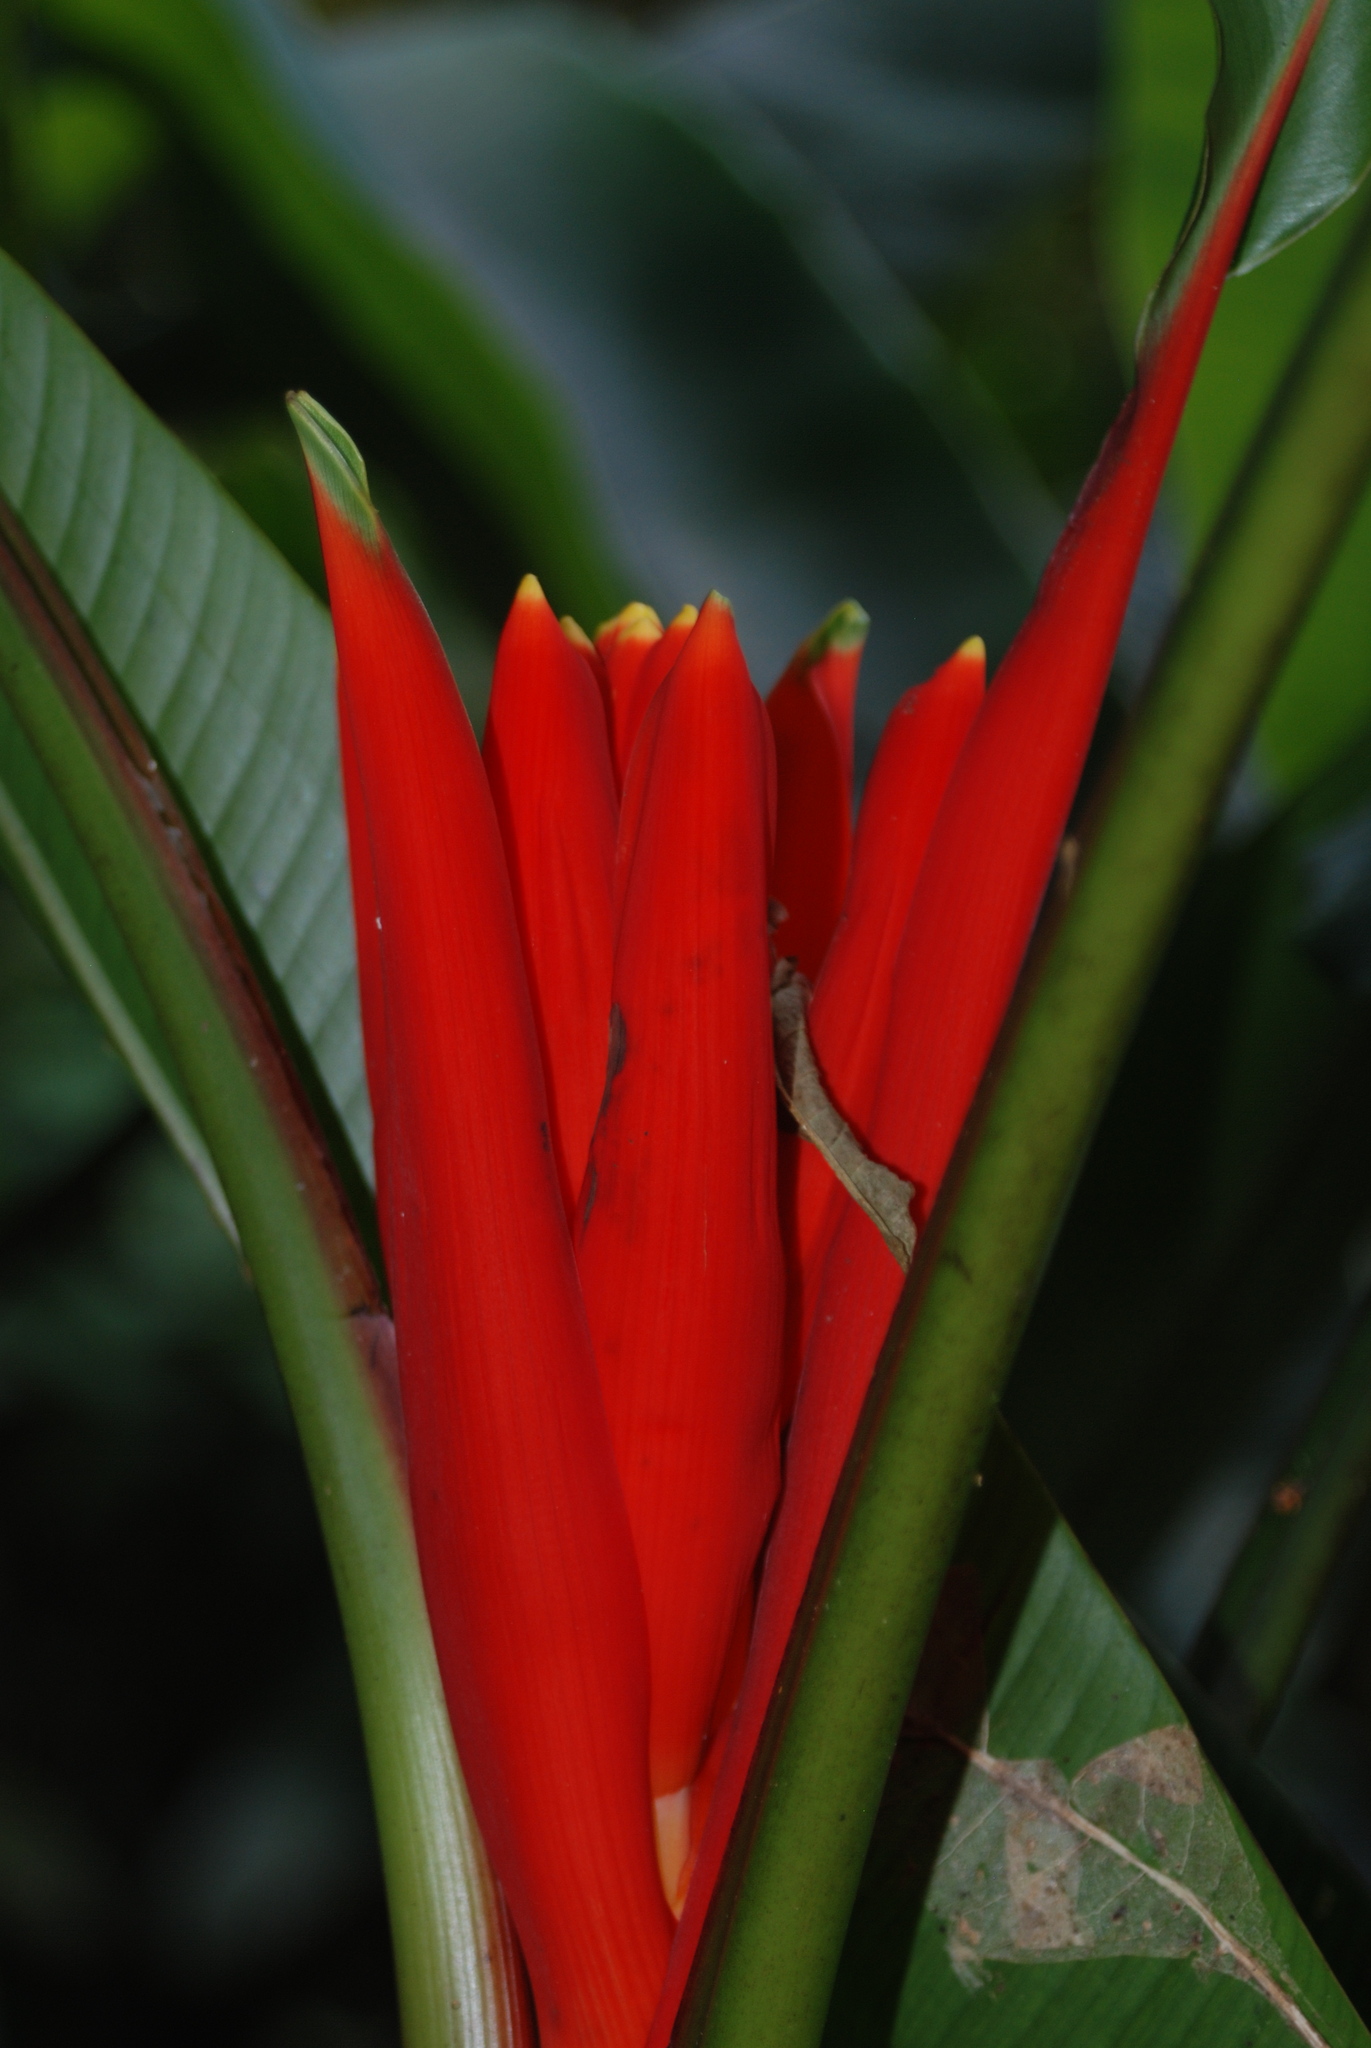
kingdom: Plantae
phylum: Tracheophyta
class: Liliopsida
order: Zingiberales
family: Musaceae
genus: Musa
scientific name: Musa coccinea
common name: Scarlet banana
